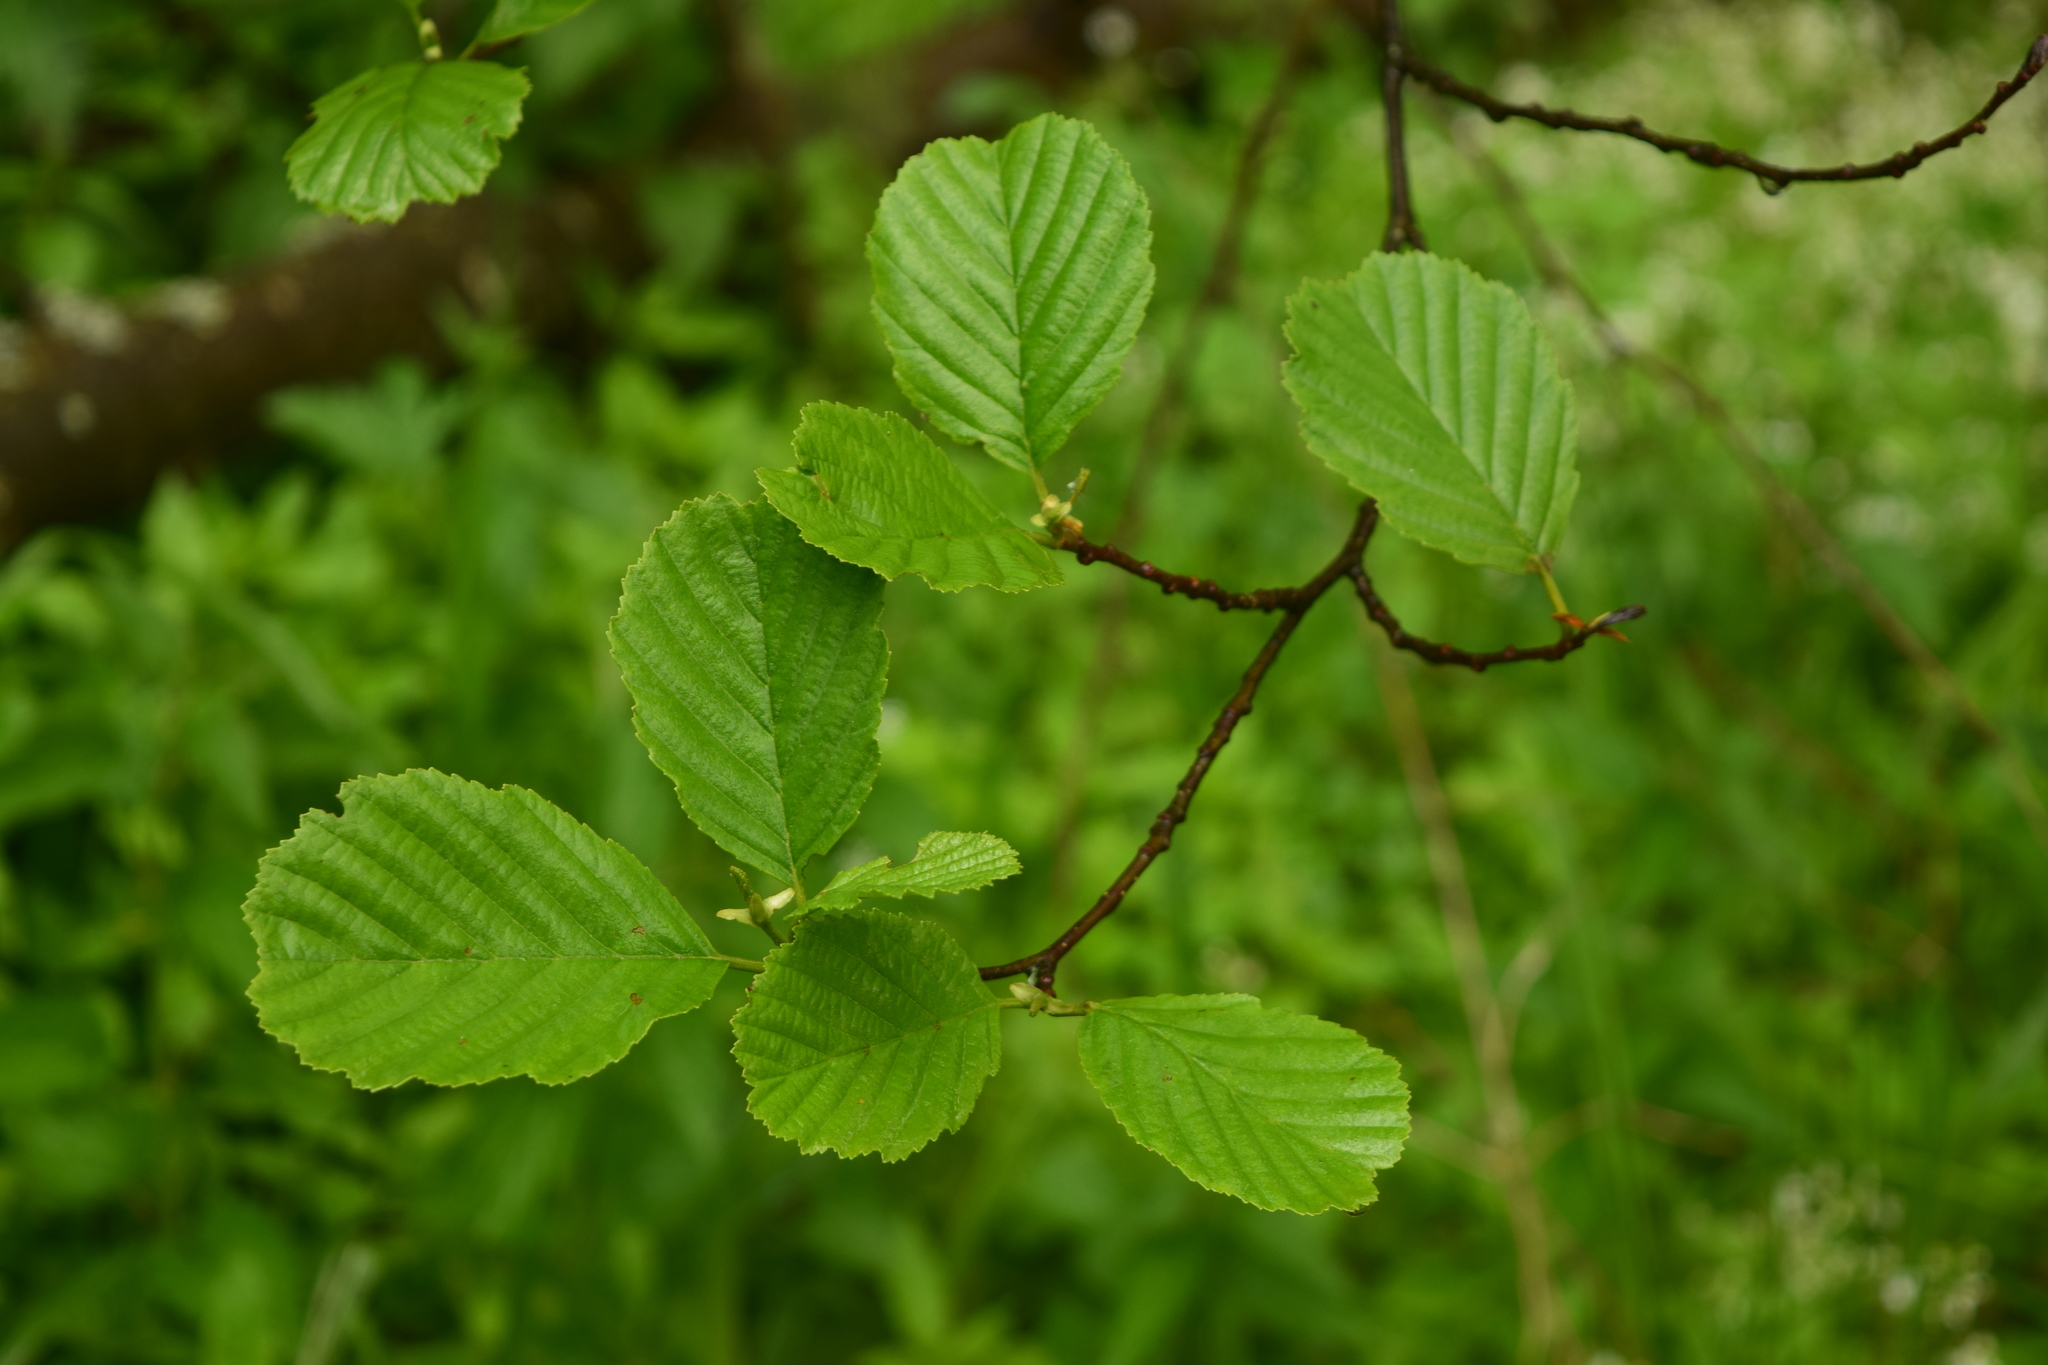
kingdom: Plantae
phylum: Tracheophyta
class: Magnoliopsida
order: Fagales
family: Betulaceae
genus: Alnus
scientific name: Alnus glutinosa
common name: Black alder
